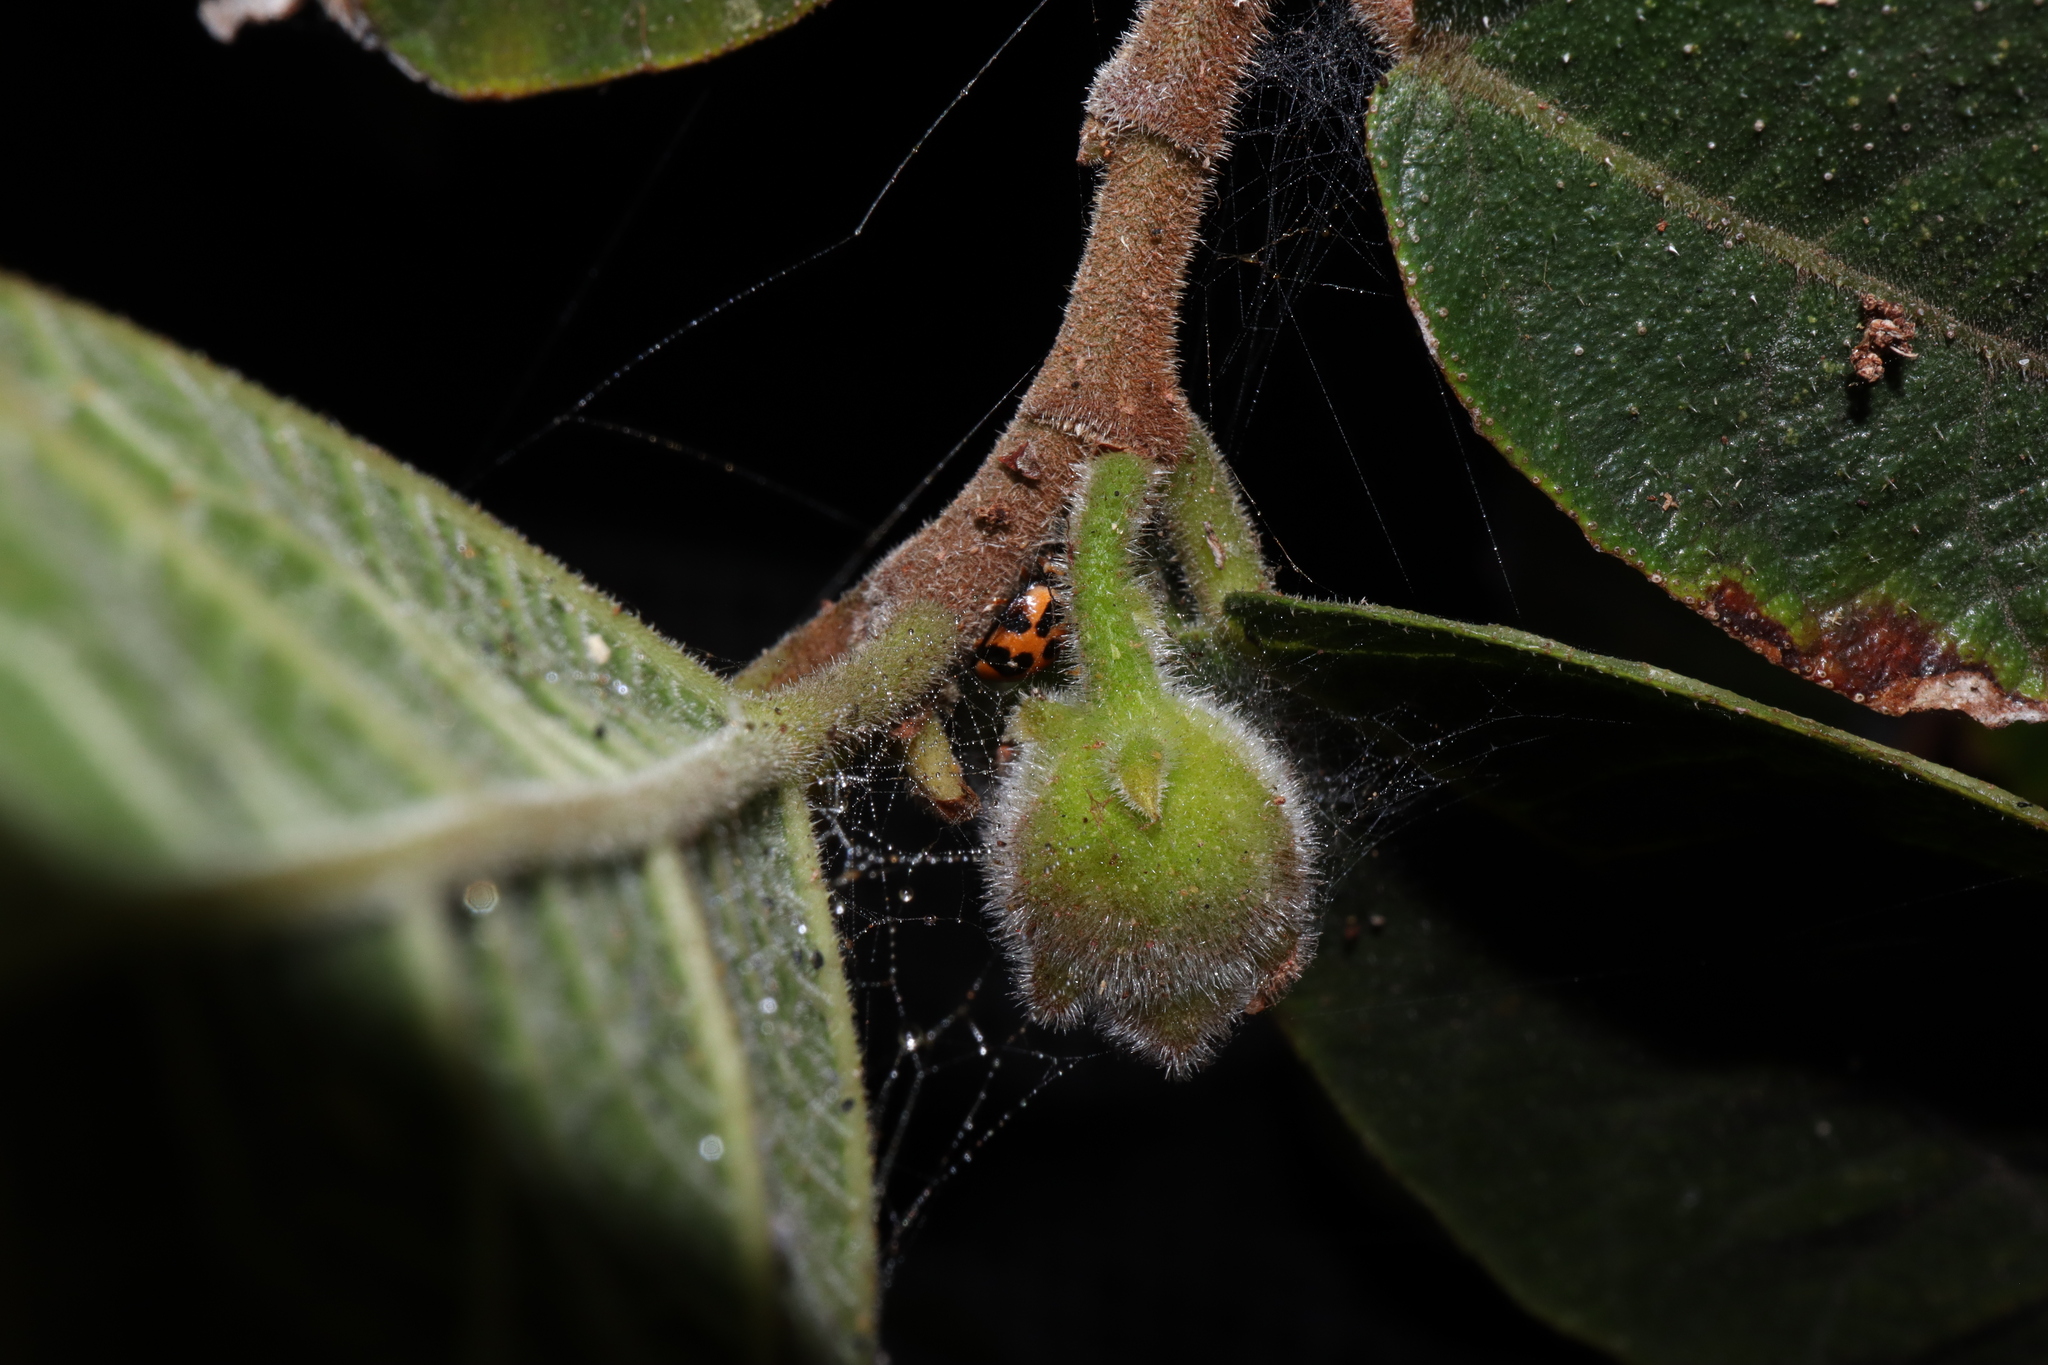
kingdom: Animalia
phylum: Arthropoda
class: Insecta
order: Coleoptera
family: Coccinellidae
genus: Coelophora
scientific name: Coelophora inaequalis
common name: Common australian lady beetle
